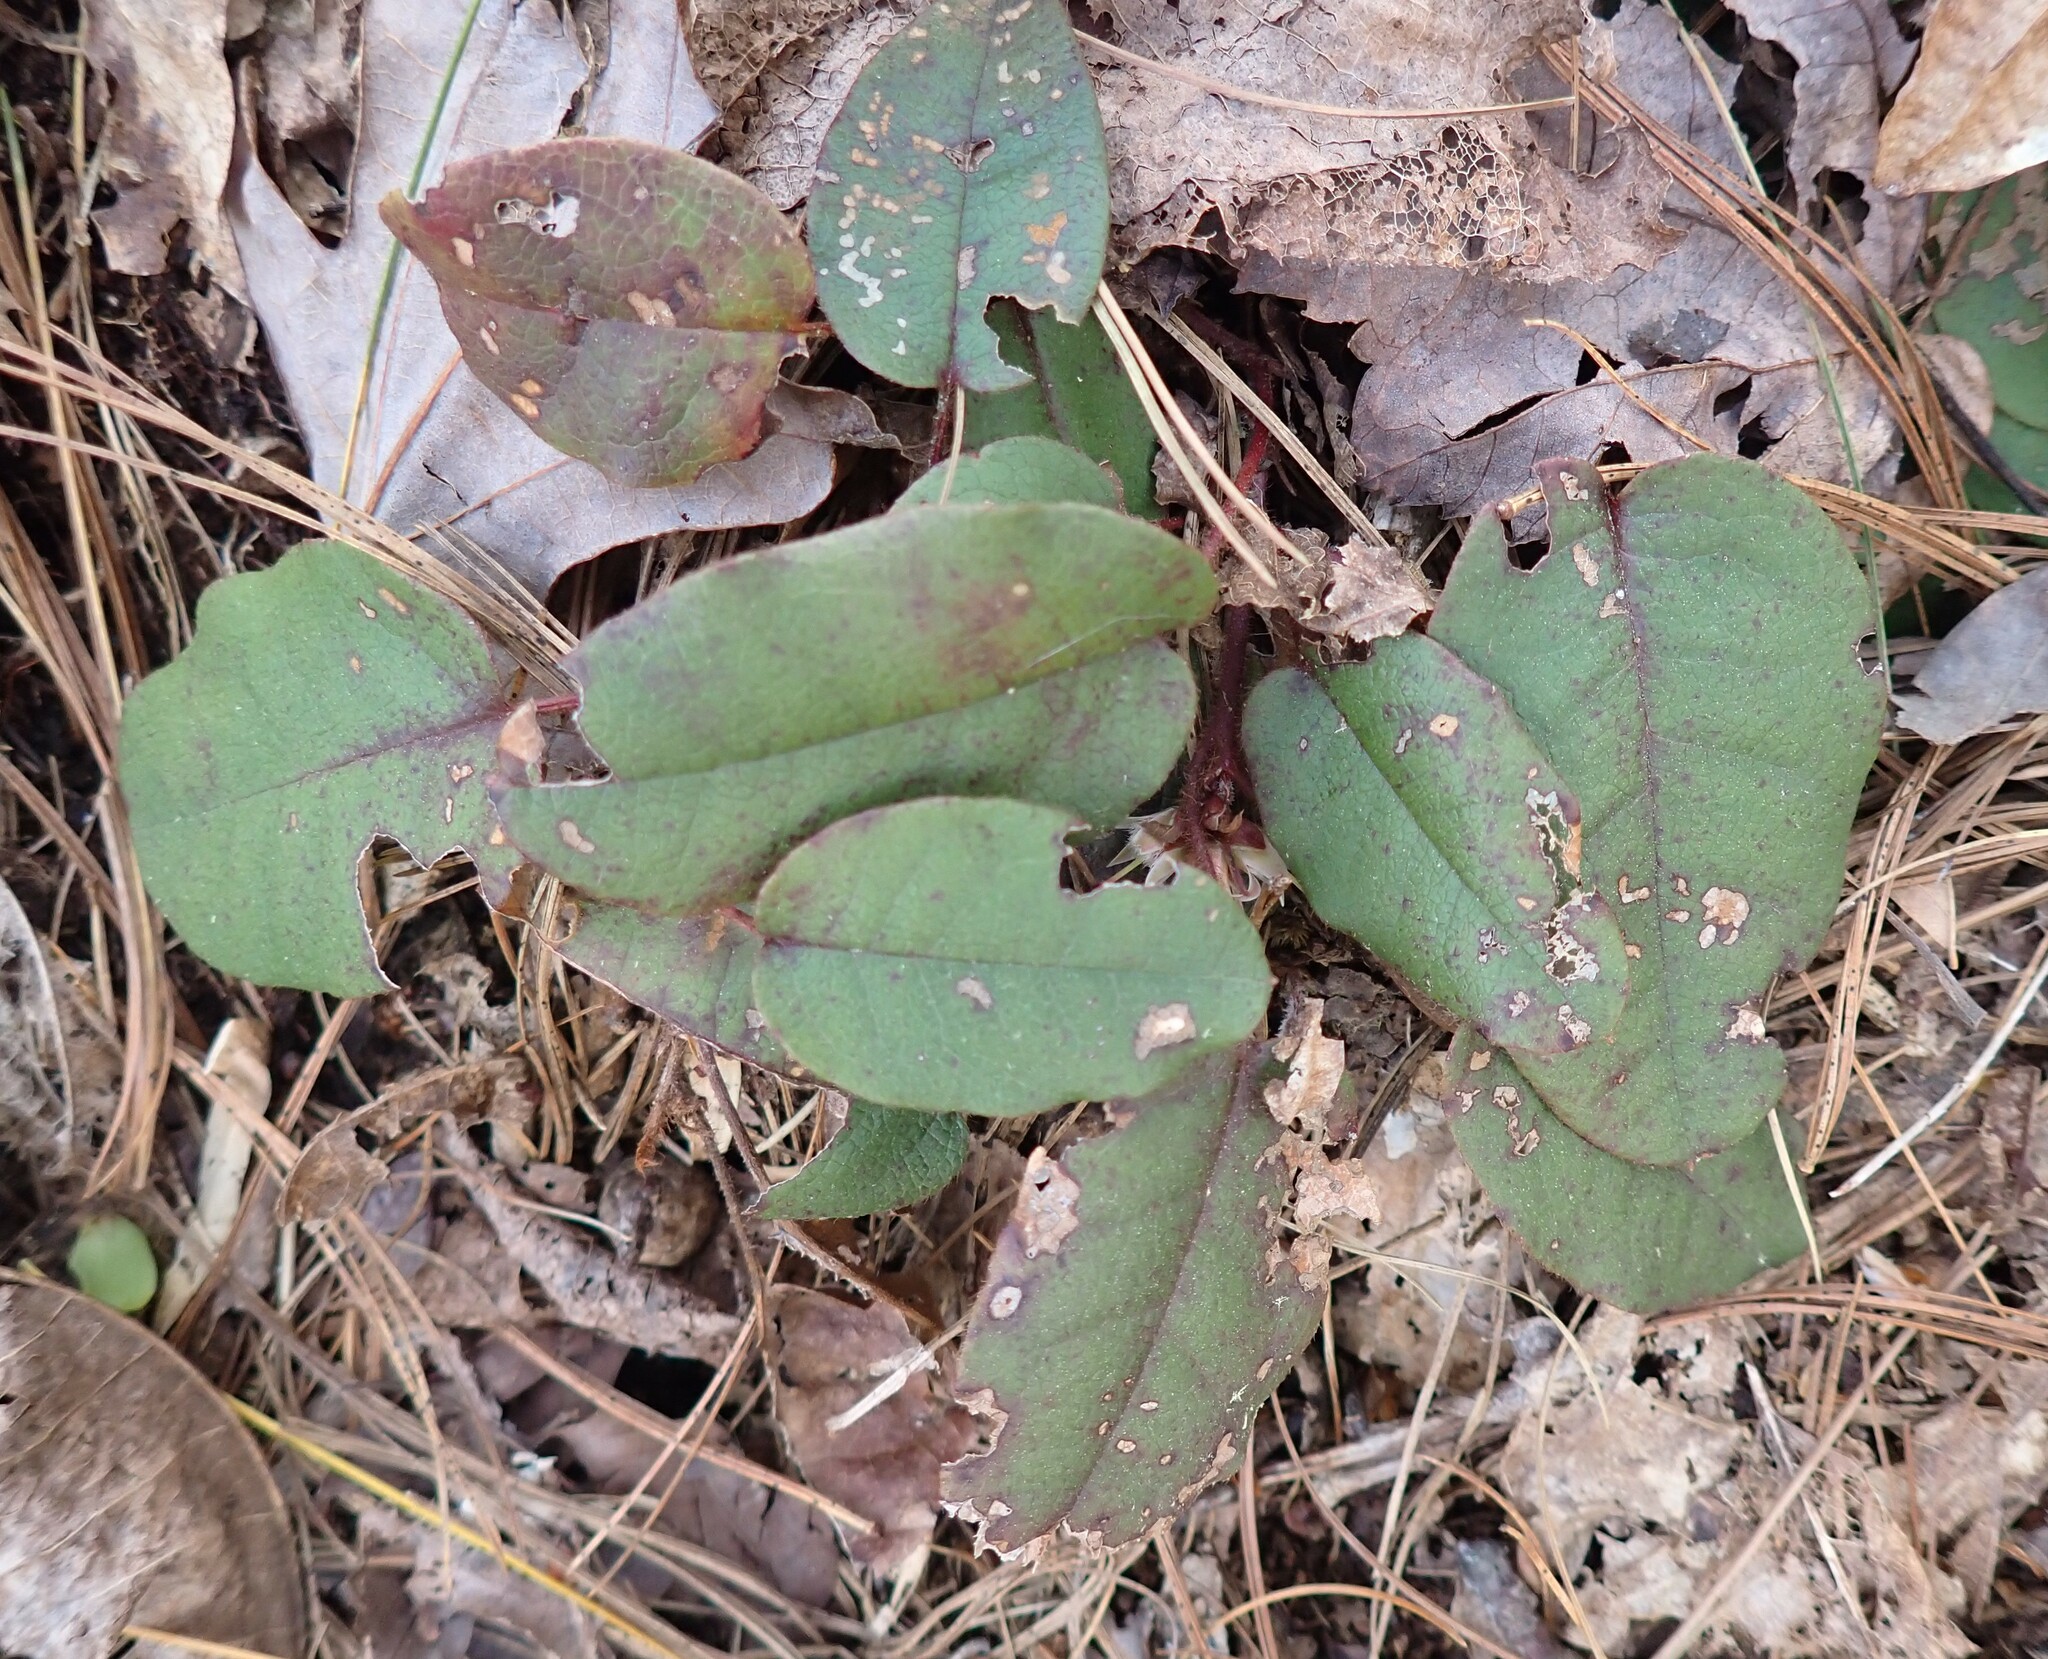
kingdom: Plantae
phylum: Tracheophyta
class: Magnoliopsida
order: Ericales
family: Ericaceae
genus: Epigaea
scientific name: Epigaea repens
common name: Gravelroot
